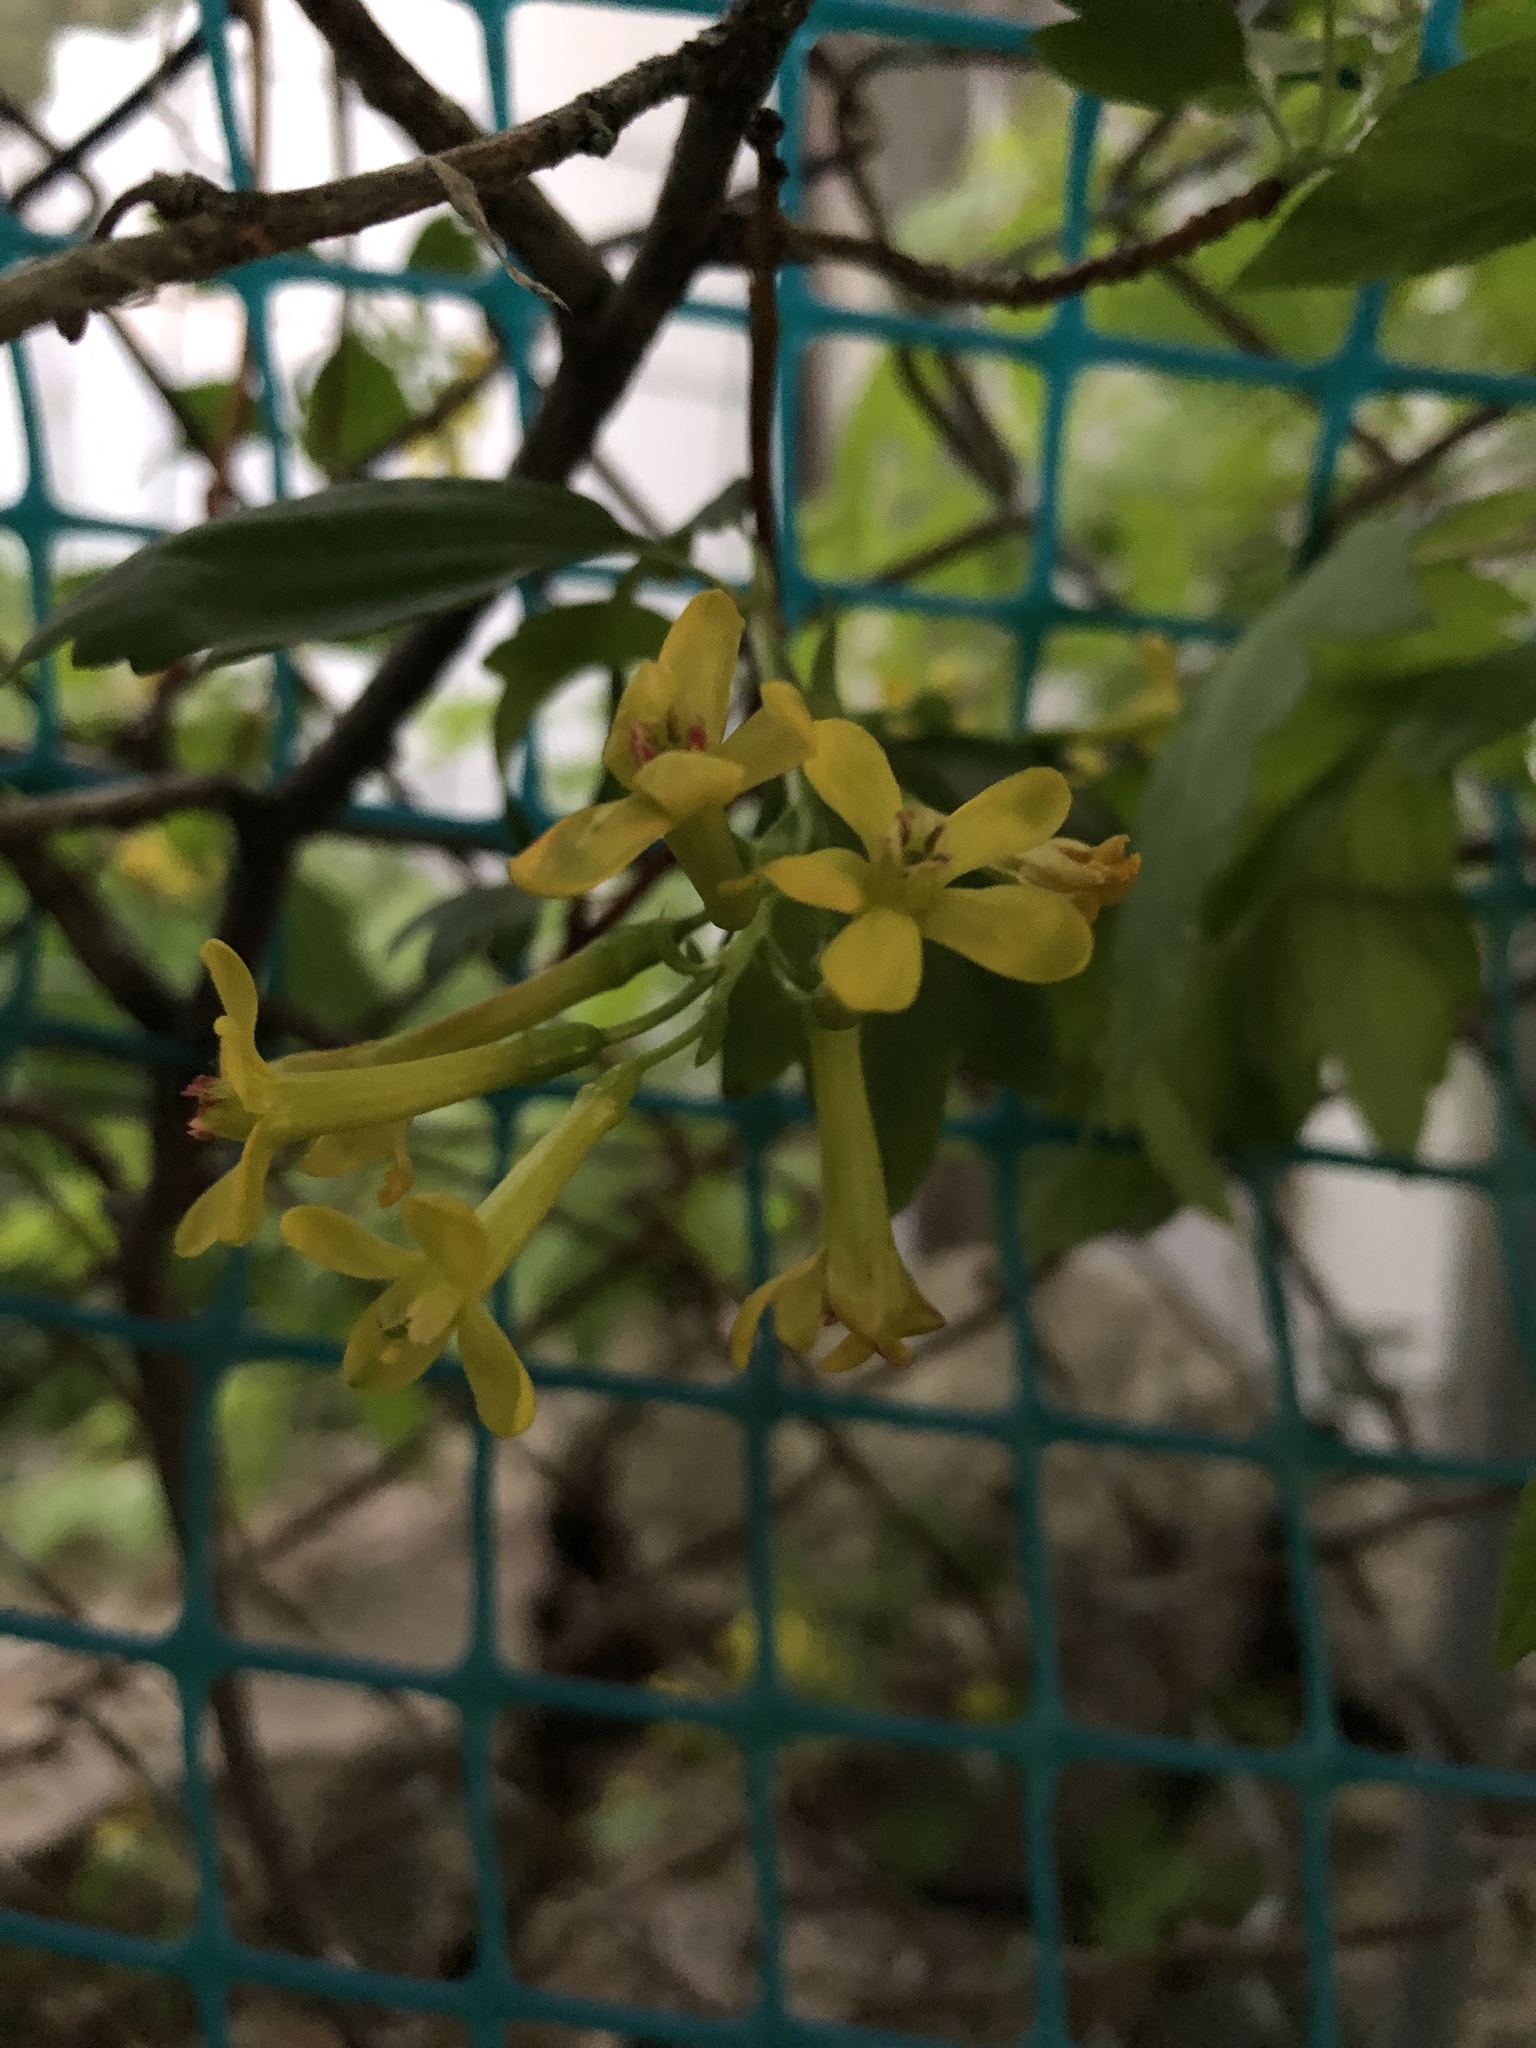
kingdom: Plantae
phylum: Tracheophyta
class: Magnoliopsida
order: Saxifragales
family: Grossulariaceae
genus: Ribes
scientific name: Ribes aureum
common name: Golden currant
